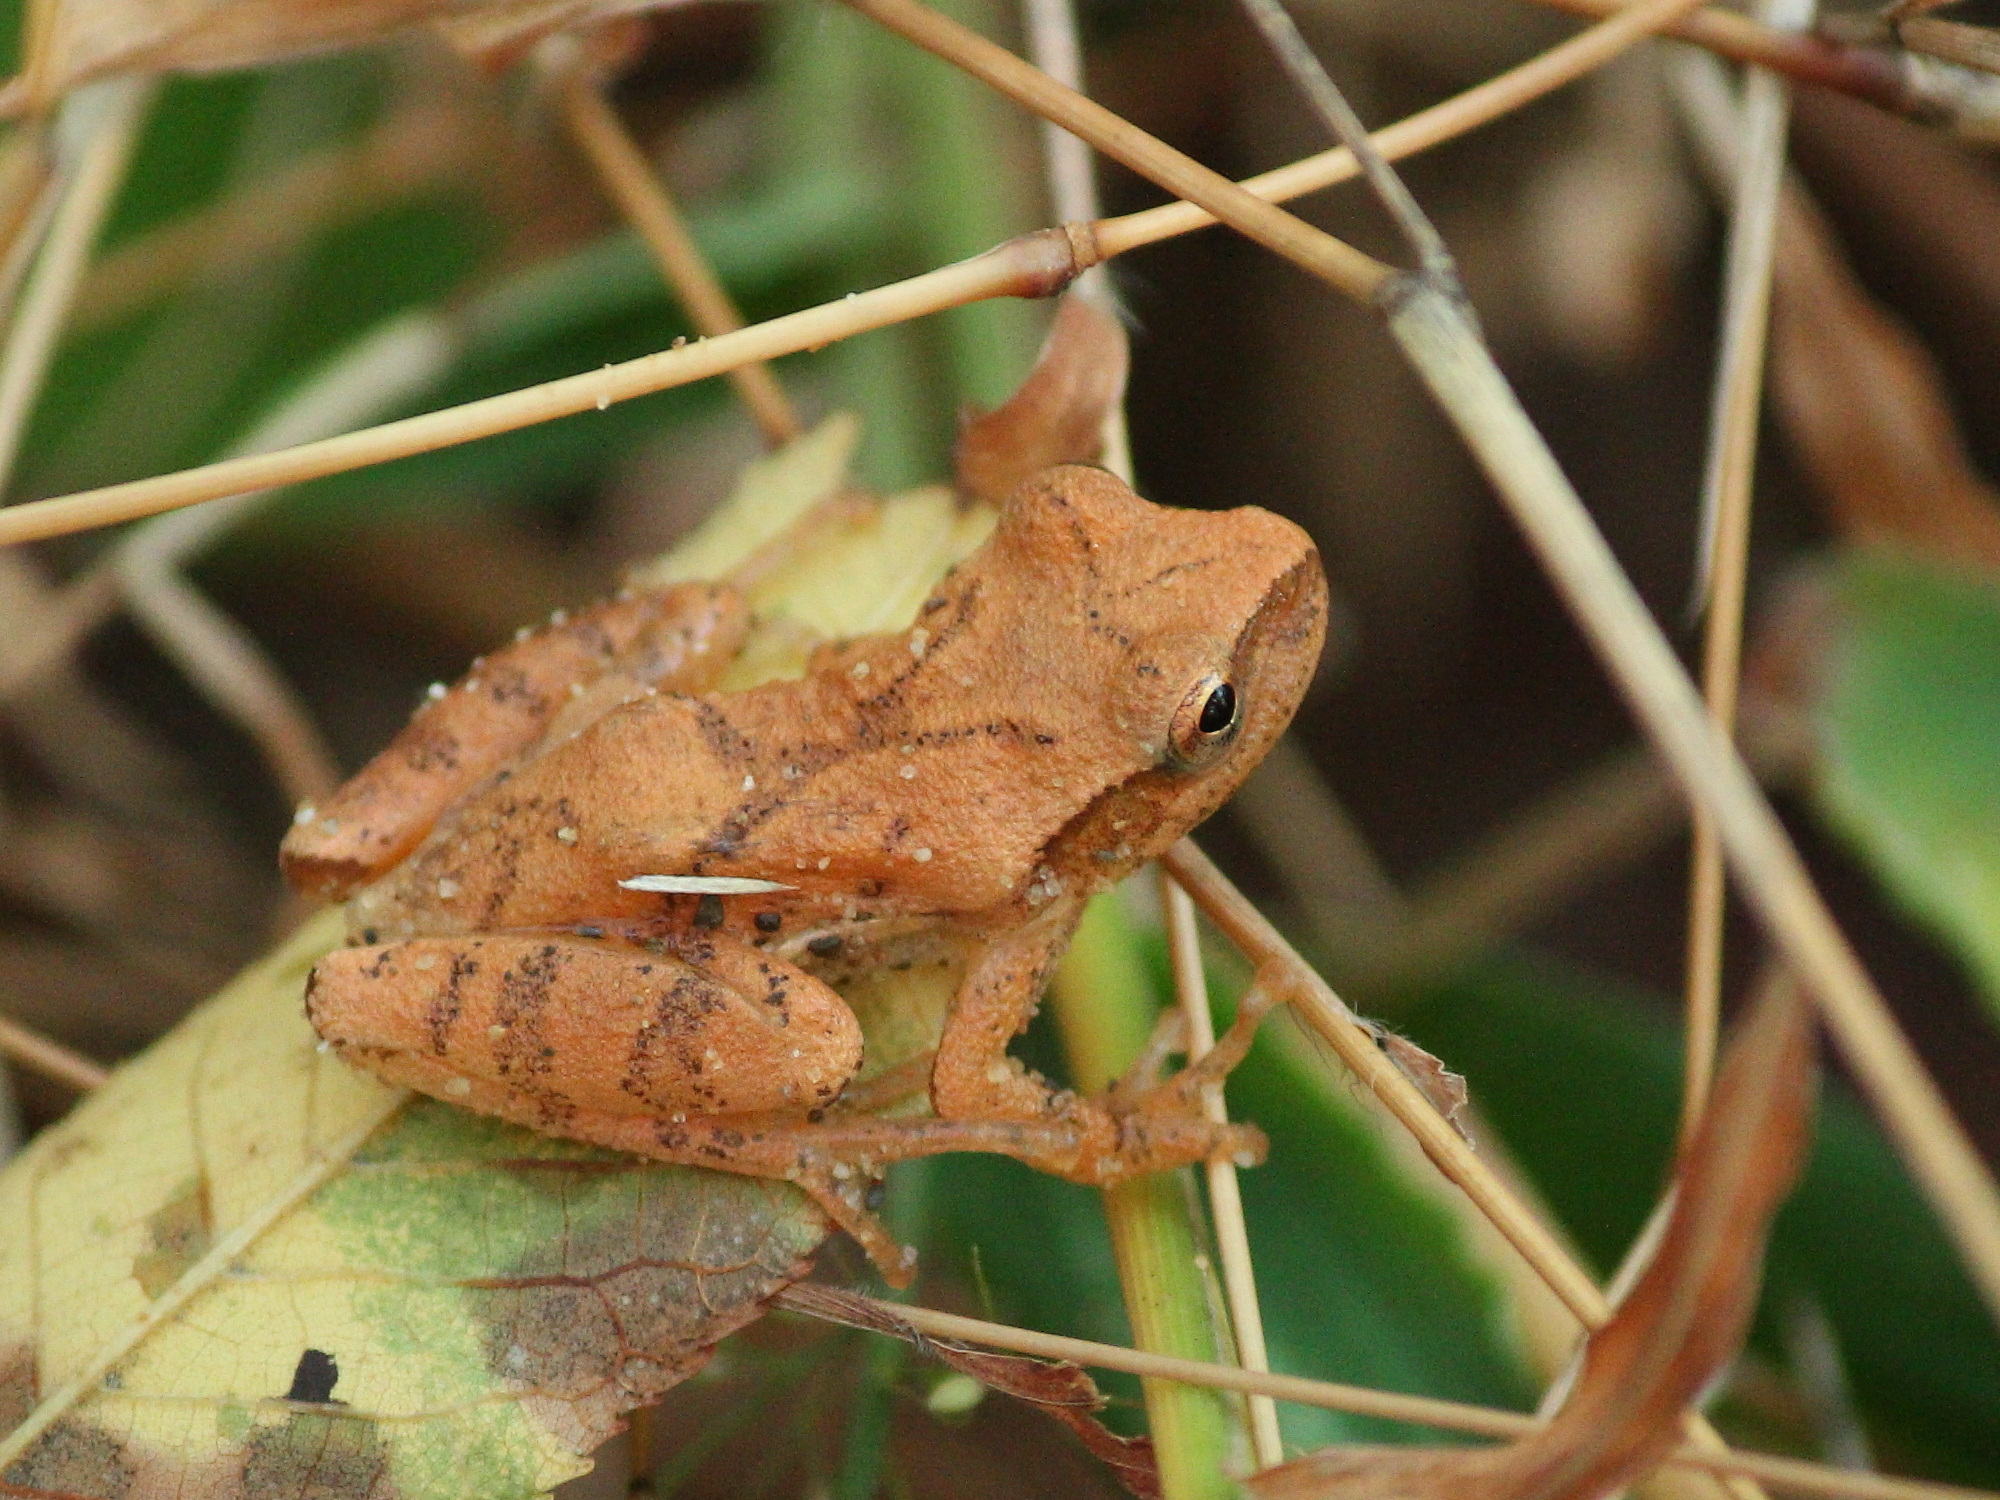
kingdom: Animalia
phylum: Chordata
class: Amphibia
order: Anura
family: Hylidae
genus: Pseudacris
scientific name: Pseudacris crucifer
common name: Spring peeper
